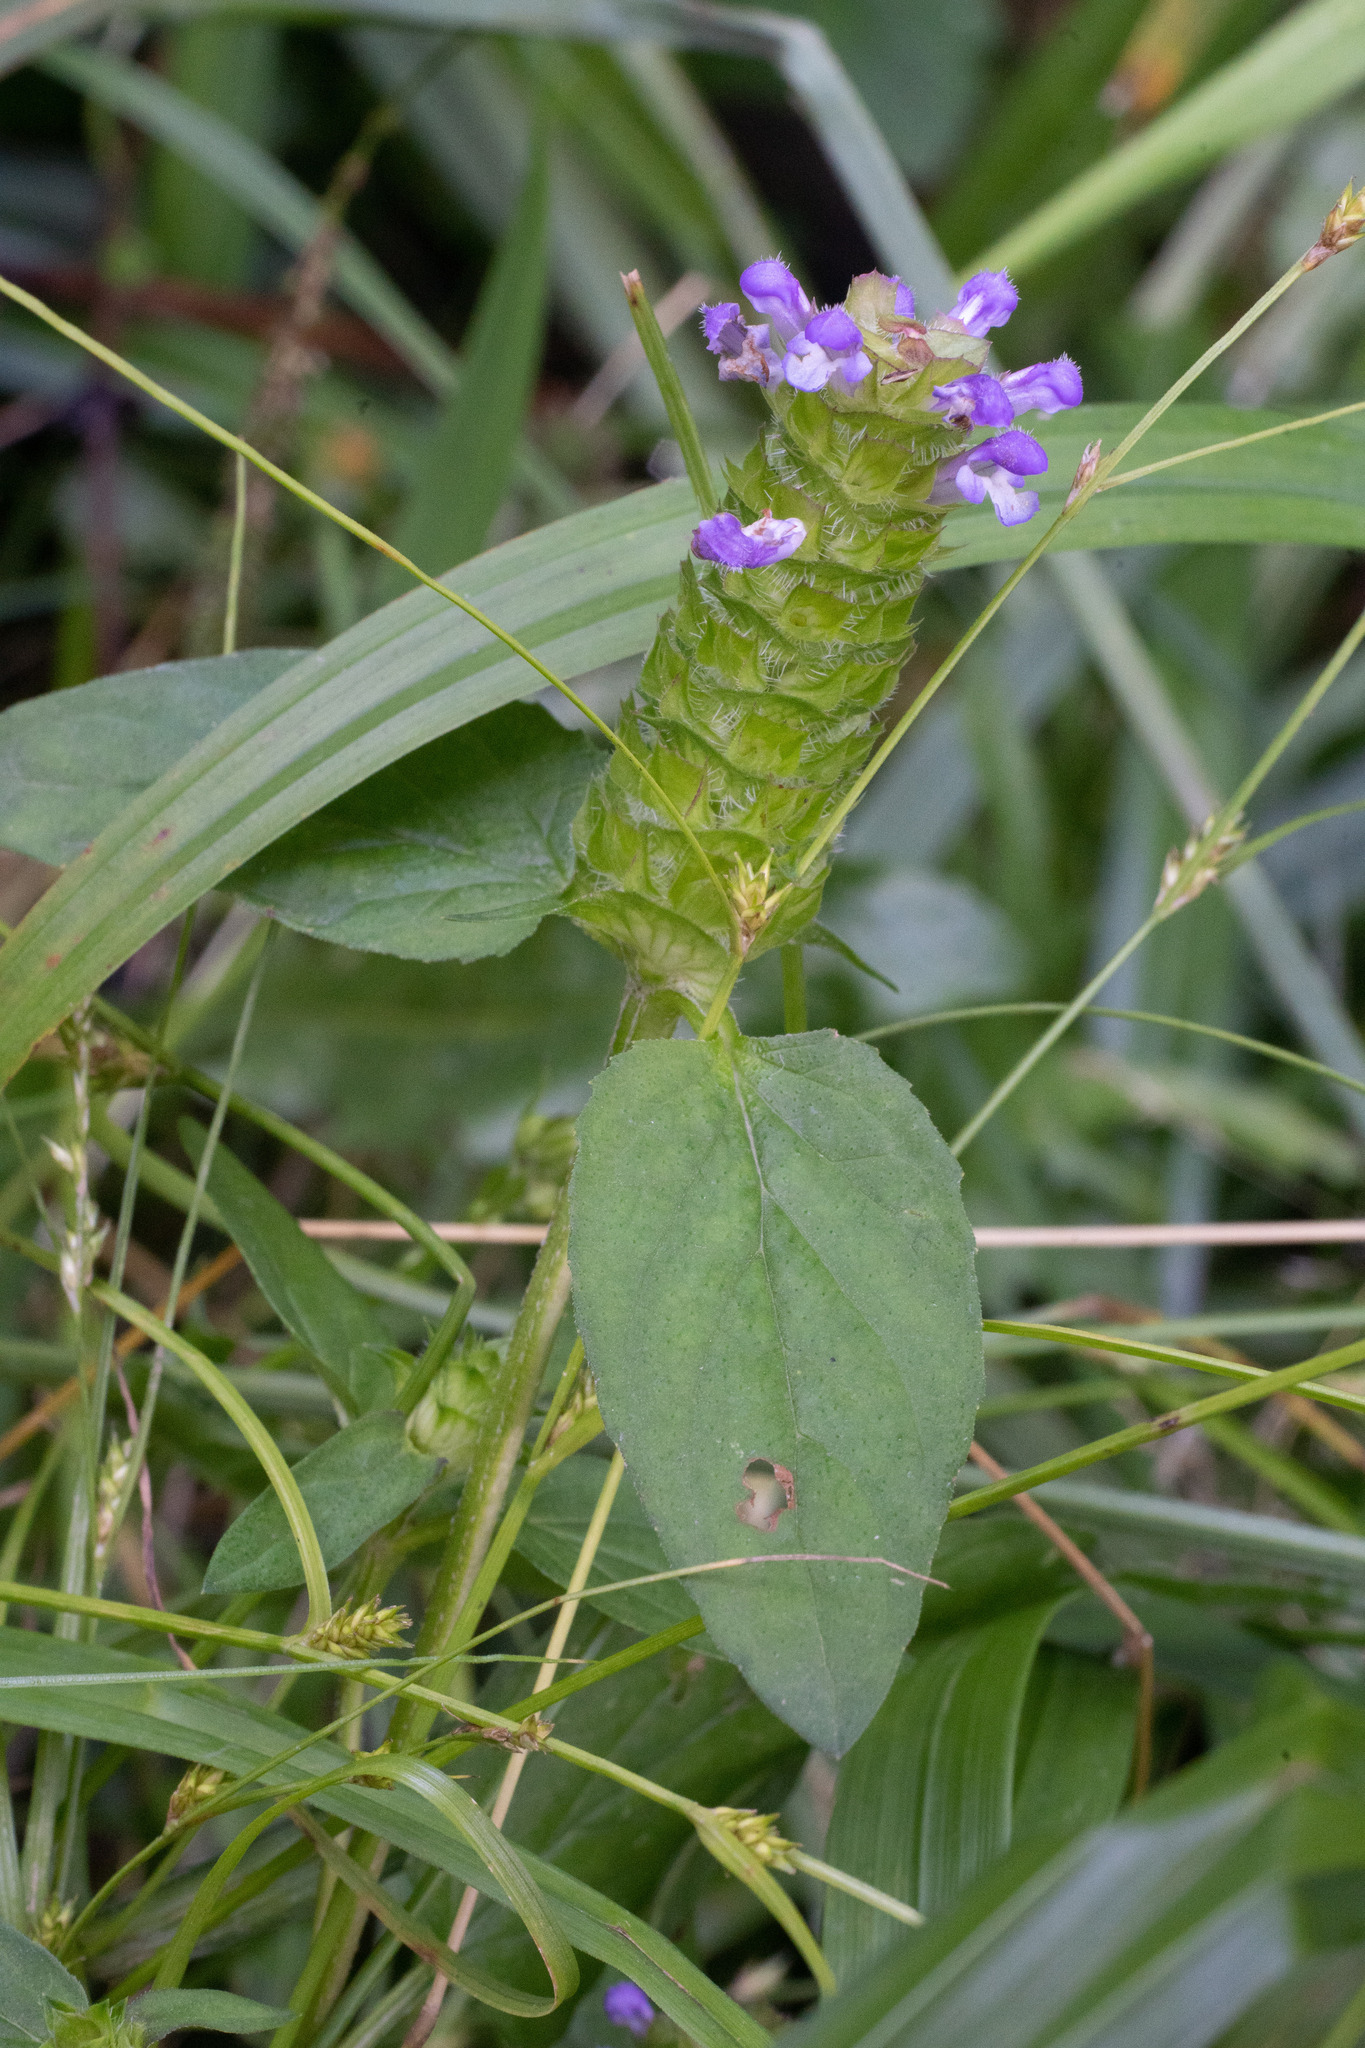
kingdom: Plantae
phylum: Tracheophyta
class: Magnoliopsida
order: Lamiales
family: Lamiaceae
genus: Prunella
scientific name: Prunella vulgaris
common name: Heal-all
